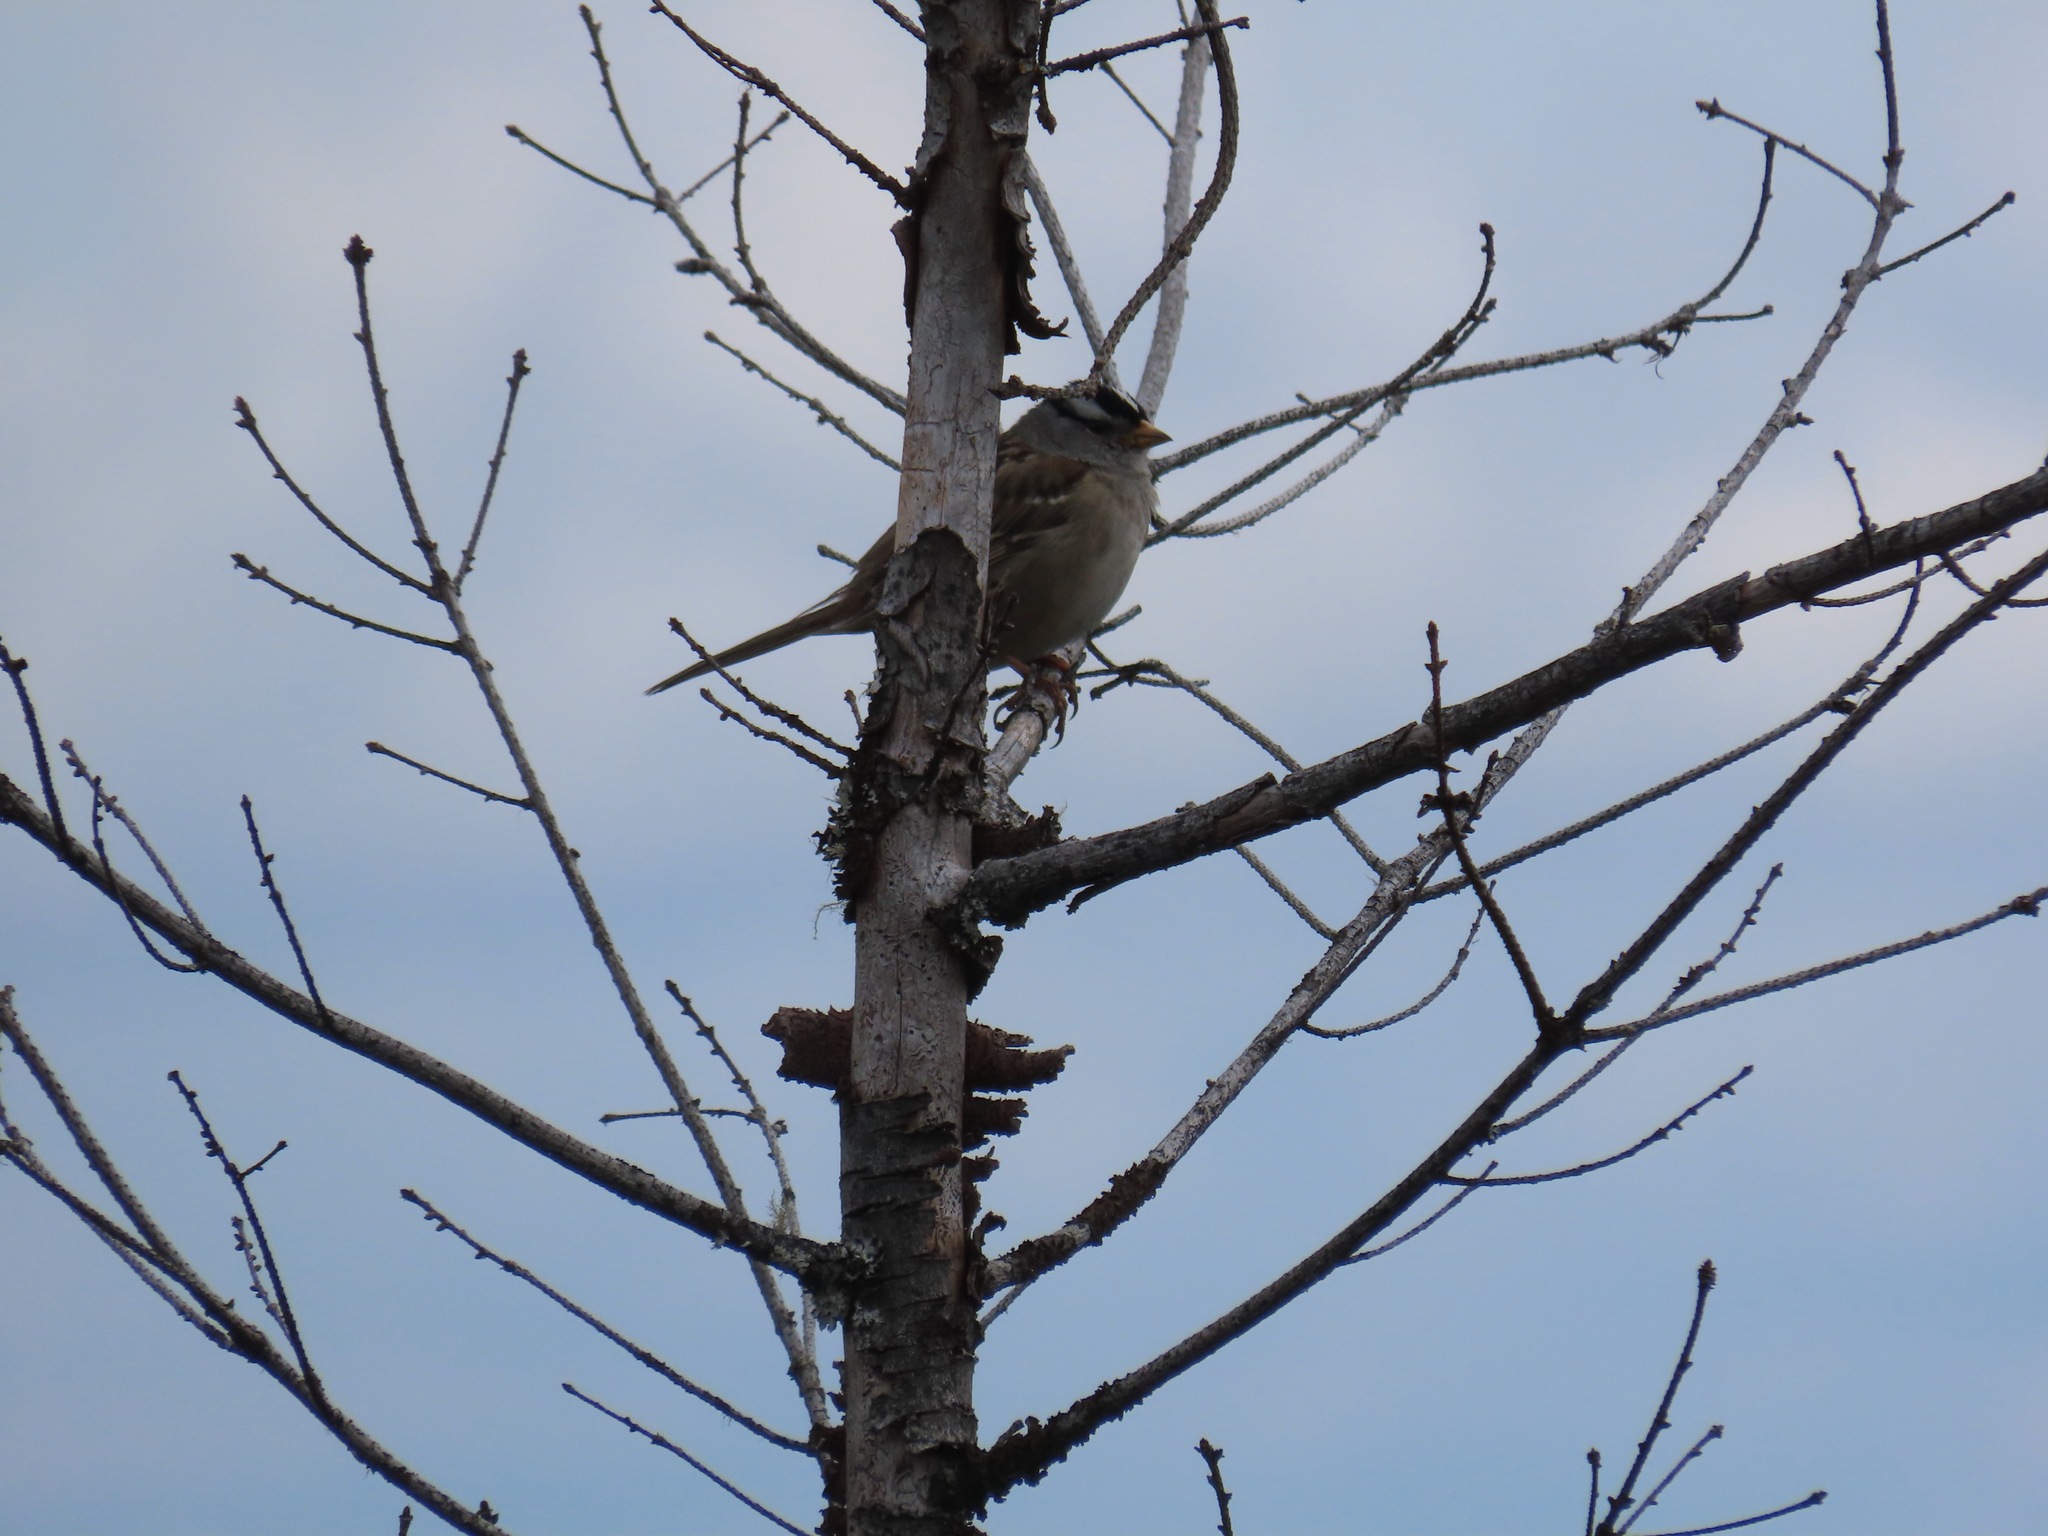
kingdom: Animalia
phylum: Chordata
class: Aves
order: Passeriformes
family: Passerellidae
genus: Zonotrichia
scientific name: Zonotrichia leucophrys
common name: White-crowned sparrow
